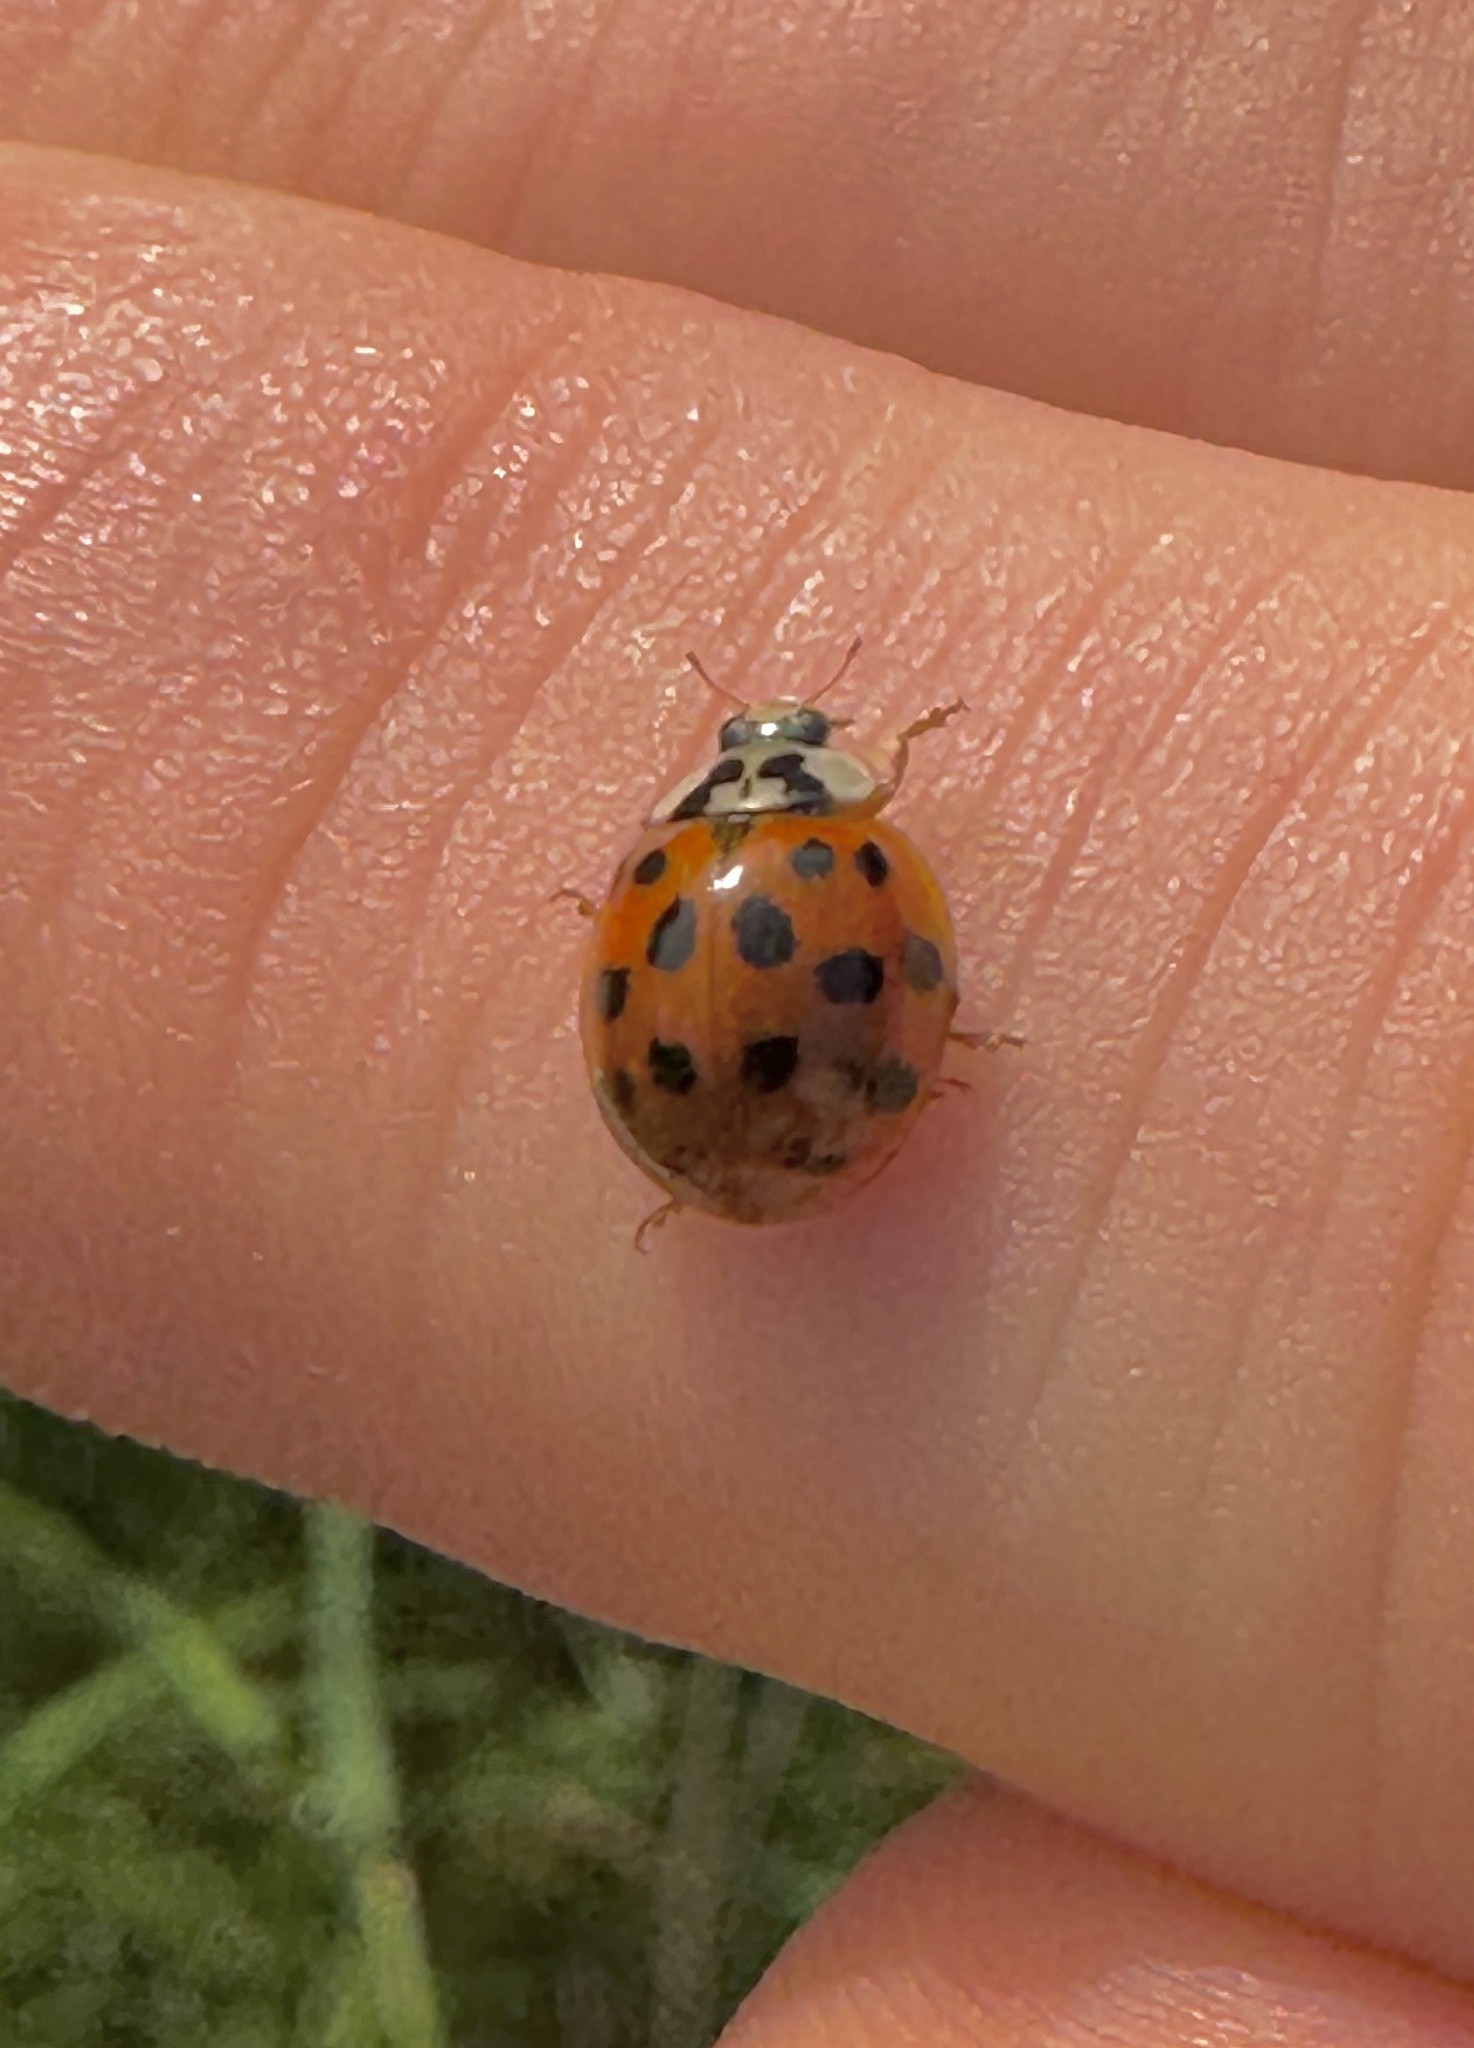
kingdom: Animalia
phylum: Arthropoda
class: Insecta
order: Coleoptera
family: Coccinellidae
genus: Harmonia
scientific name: Harmonia axyridis
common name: Harlequin ladybird
